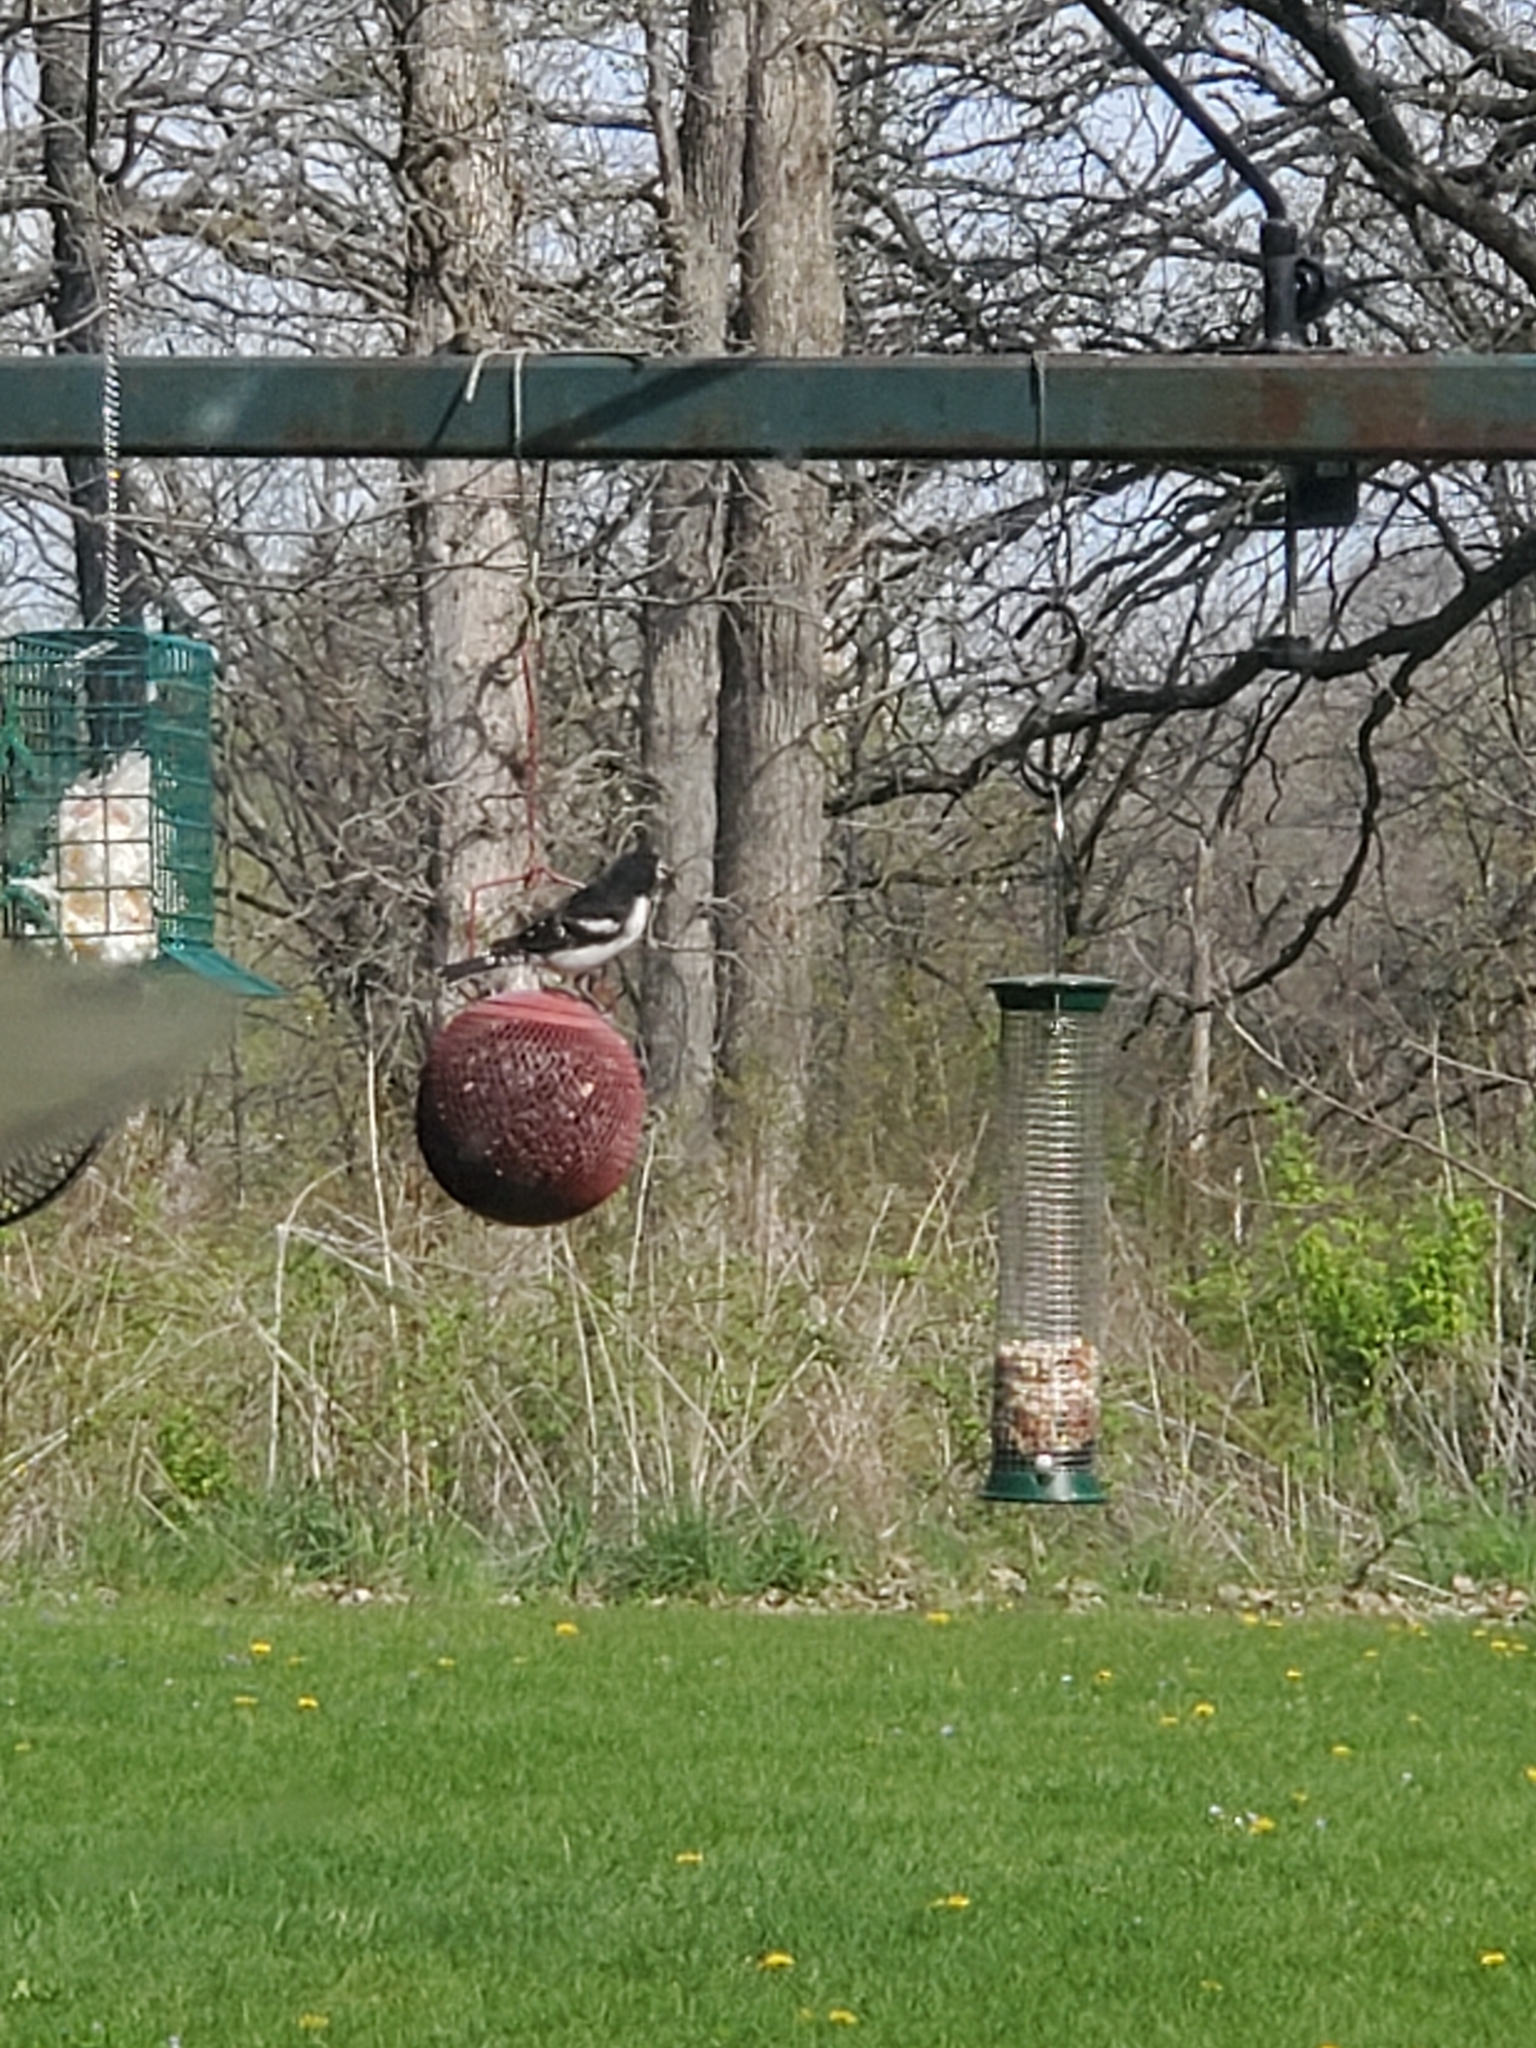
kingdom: Animalia
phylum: Chordata
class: Aves
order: Passeriformes
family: Cardinalidae
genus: Pheucticus
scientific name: Pheucticus ludovicianus
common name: Rose-breasted grosbeak
